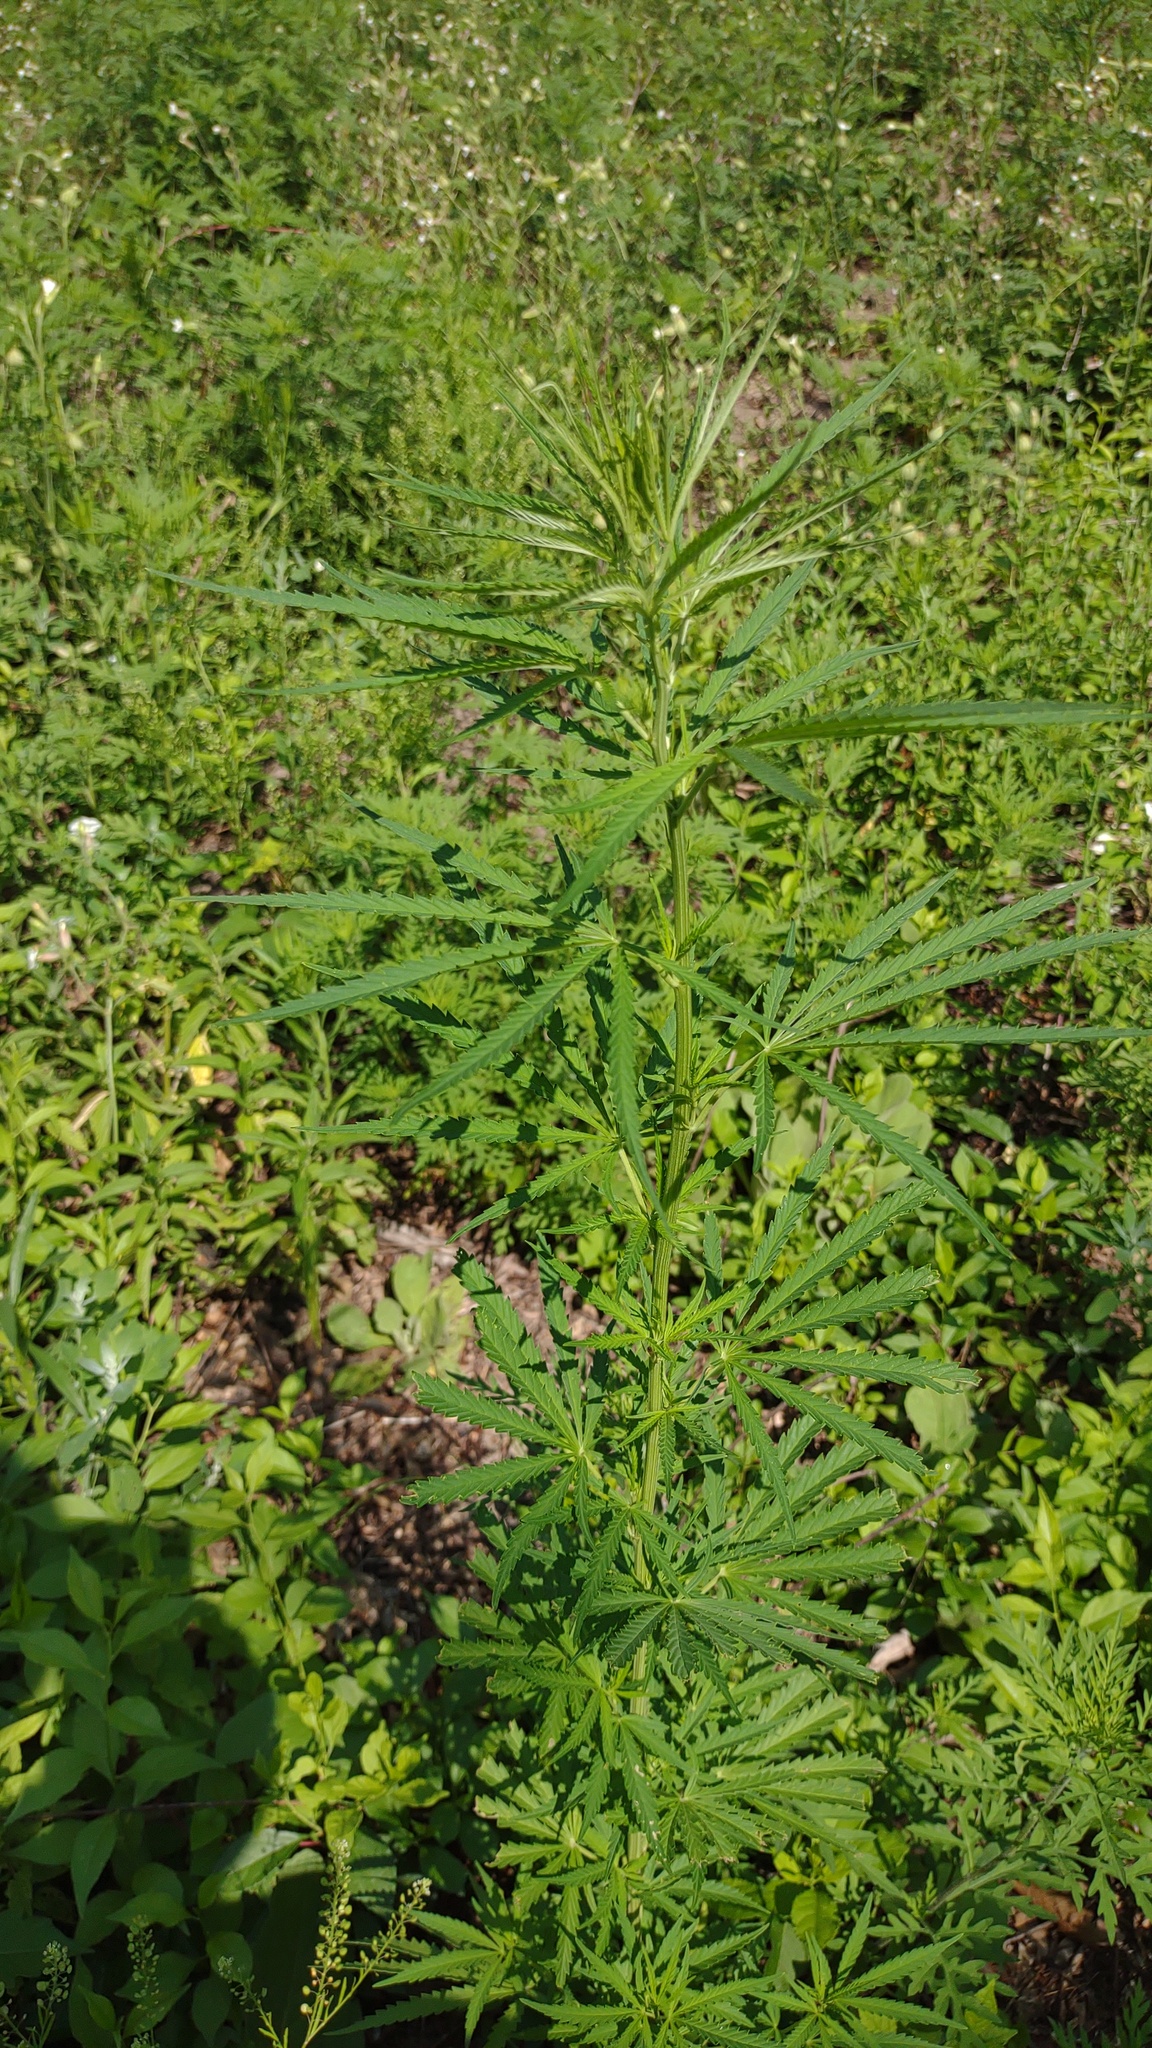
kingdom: Plantae
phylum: Tracheophyta
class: Magnoliopsida
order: Rosales
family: Cannabaceae
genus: Cannabis
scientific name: Cannabis sativa
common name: Hemp
